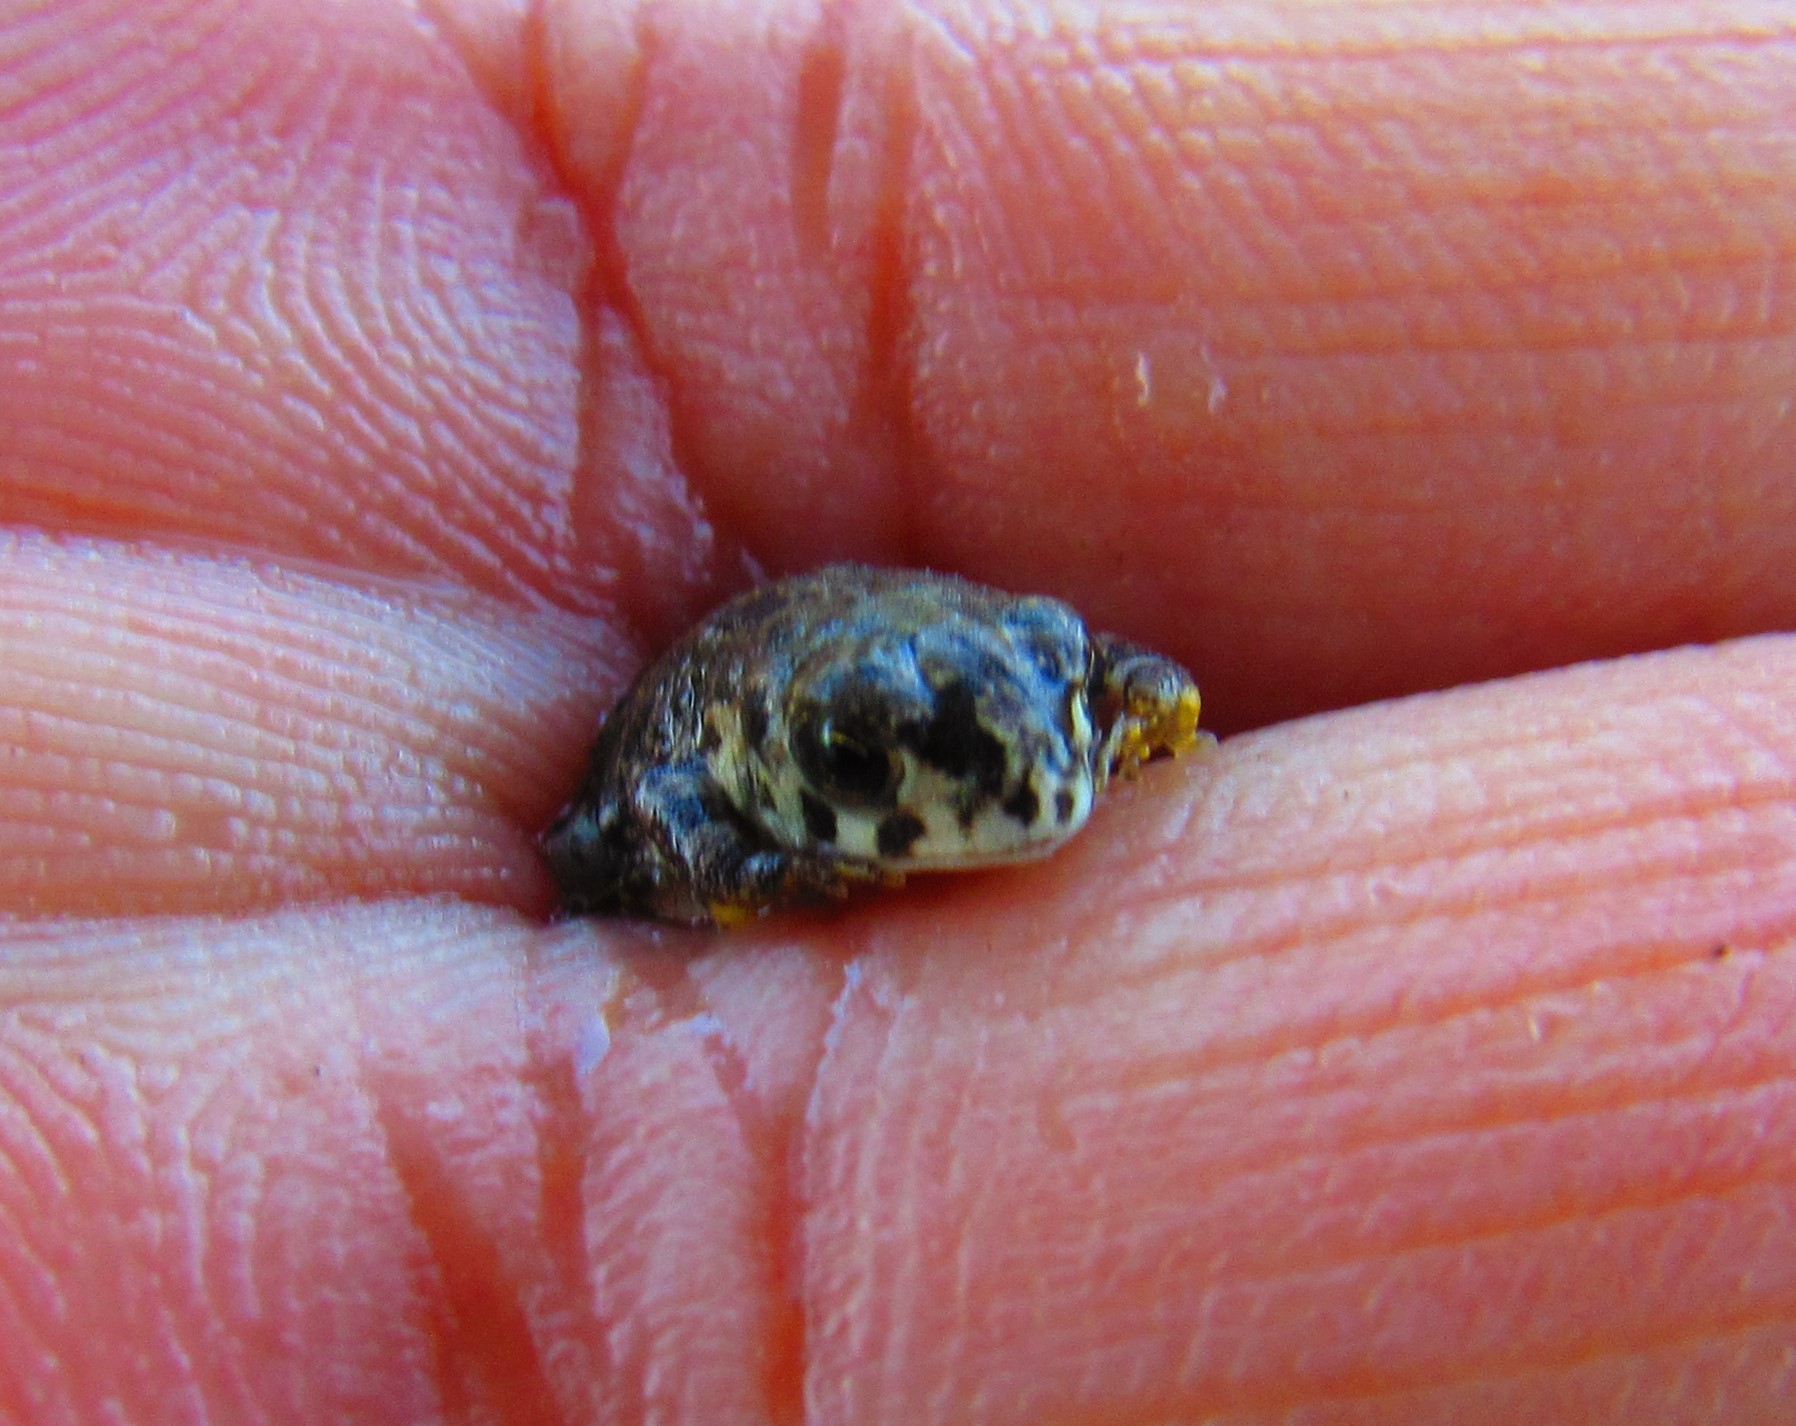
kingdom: Animalia
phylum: Chordata
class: Amphibia
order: Anura
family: Bufonidae
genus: Anaxyrus
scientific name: Anaxyrus compactilis
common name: Plateau toad
